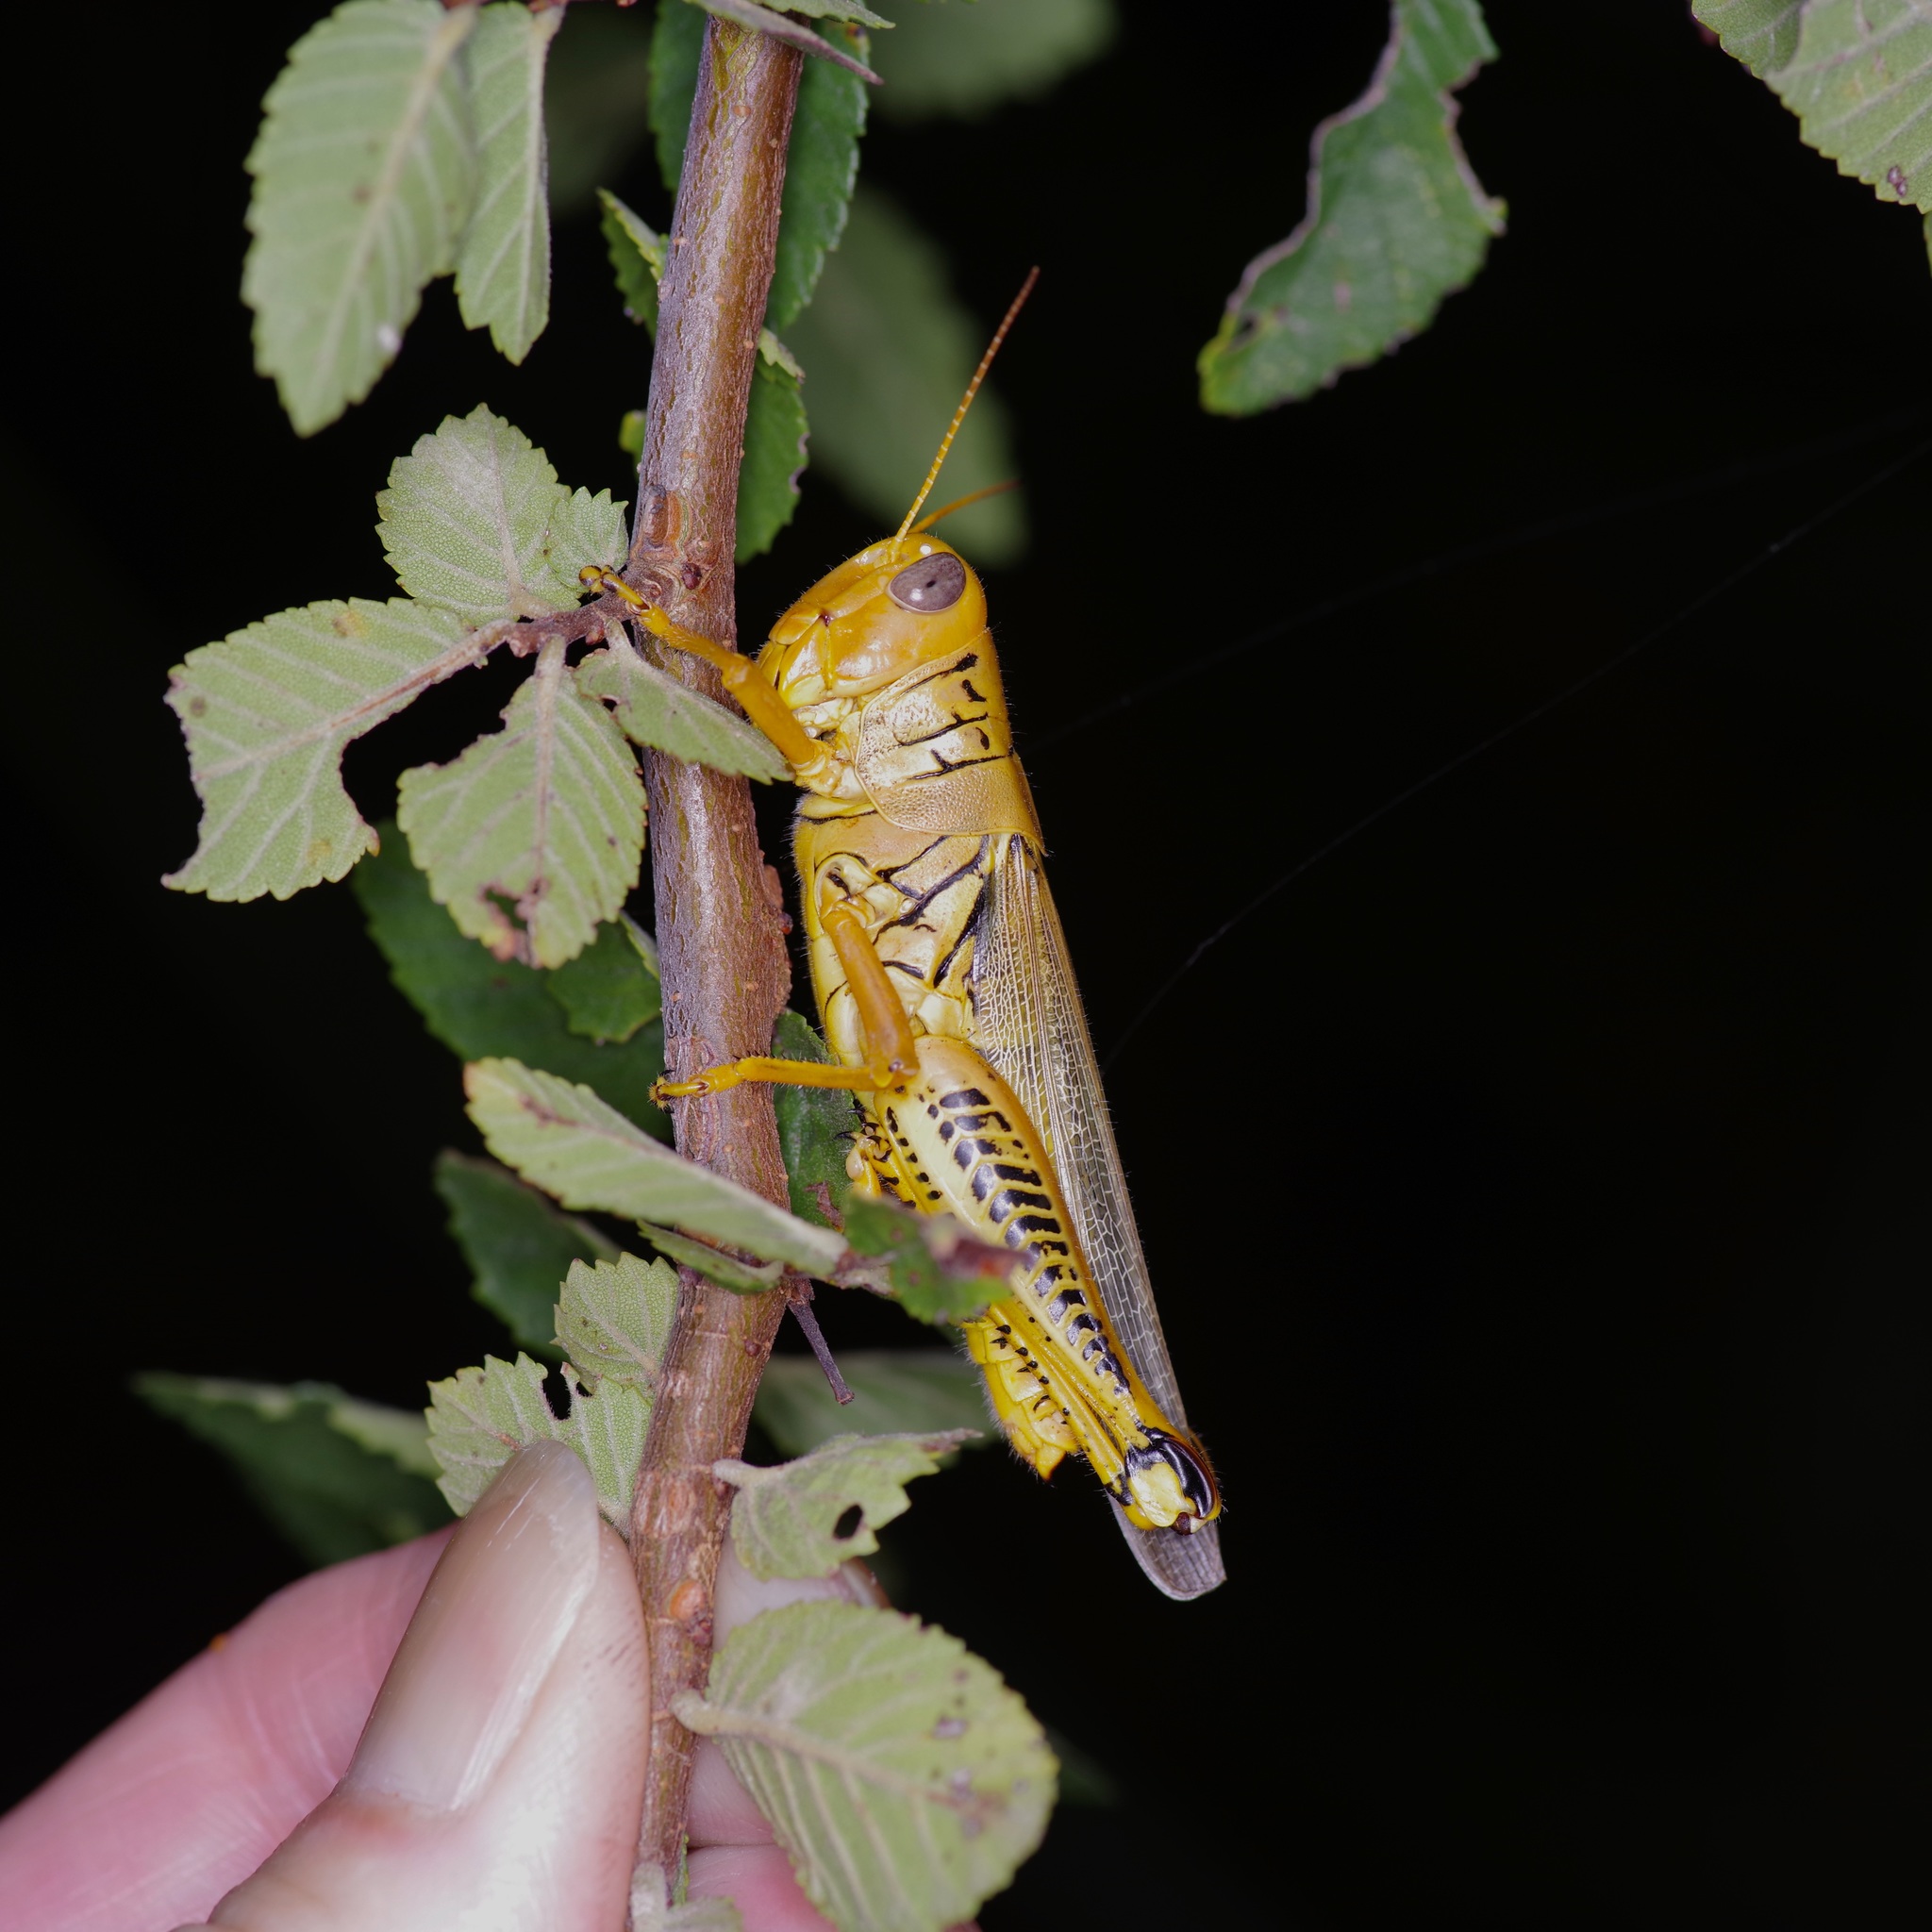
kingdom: Animalia
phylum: Arthropoda
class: Insecta
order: Orthoptera
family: Acrididae
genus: Melanoplus
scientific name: Melanoplus differentialis
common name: Differential grasshopper
